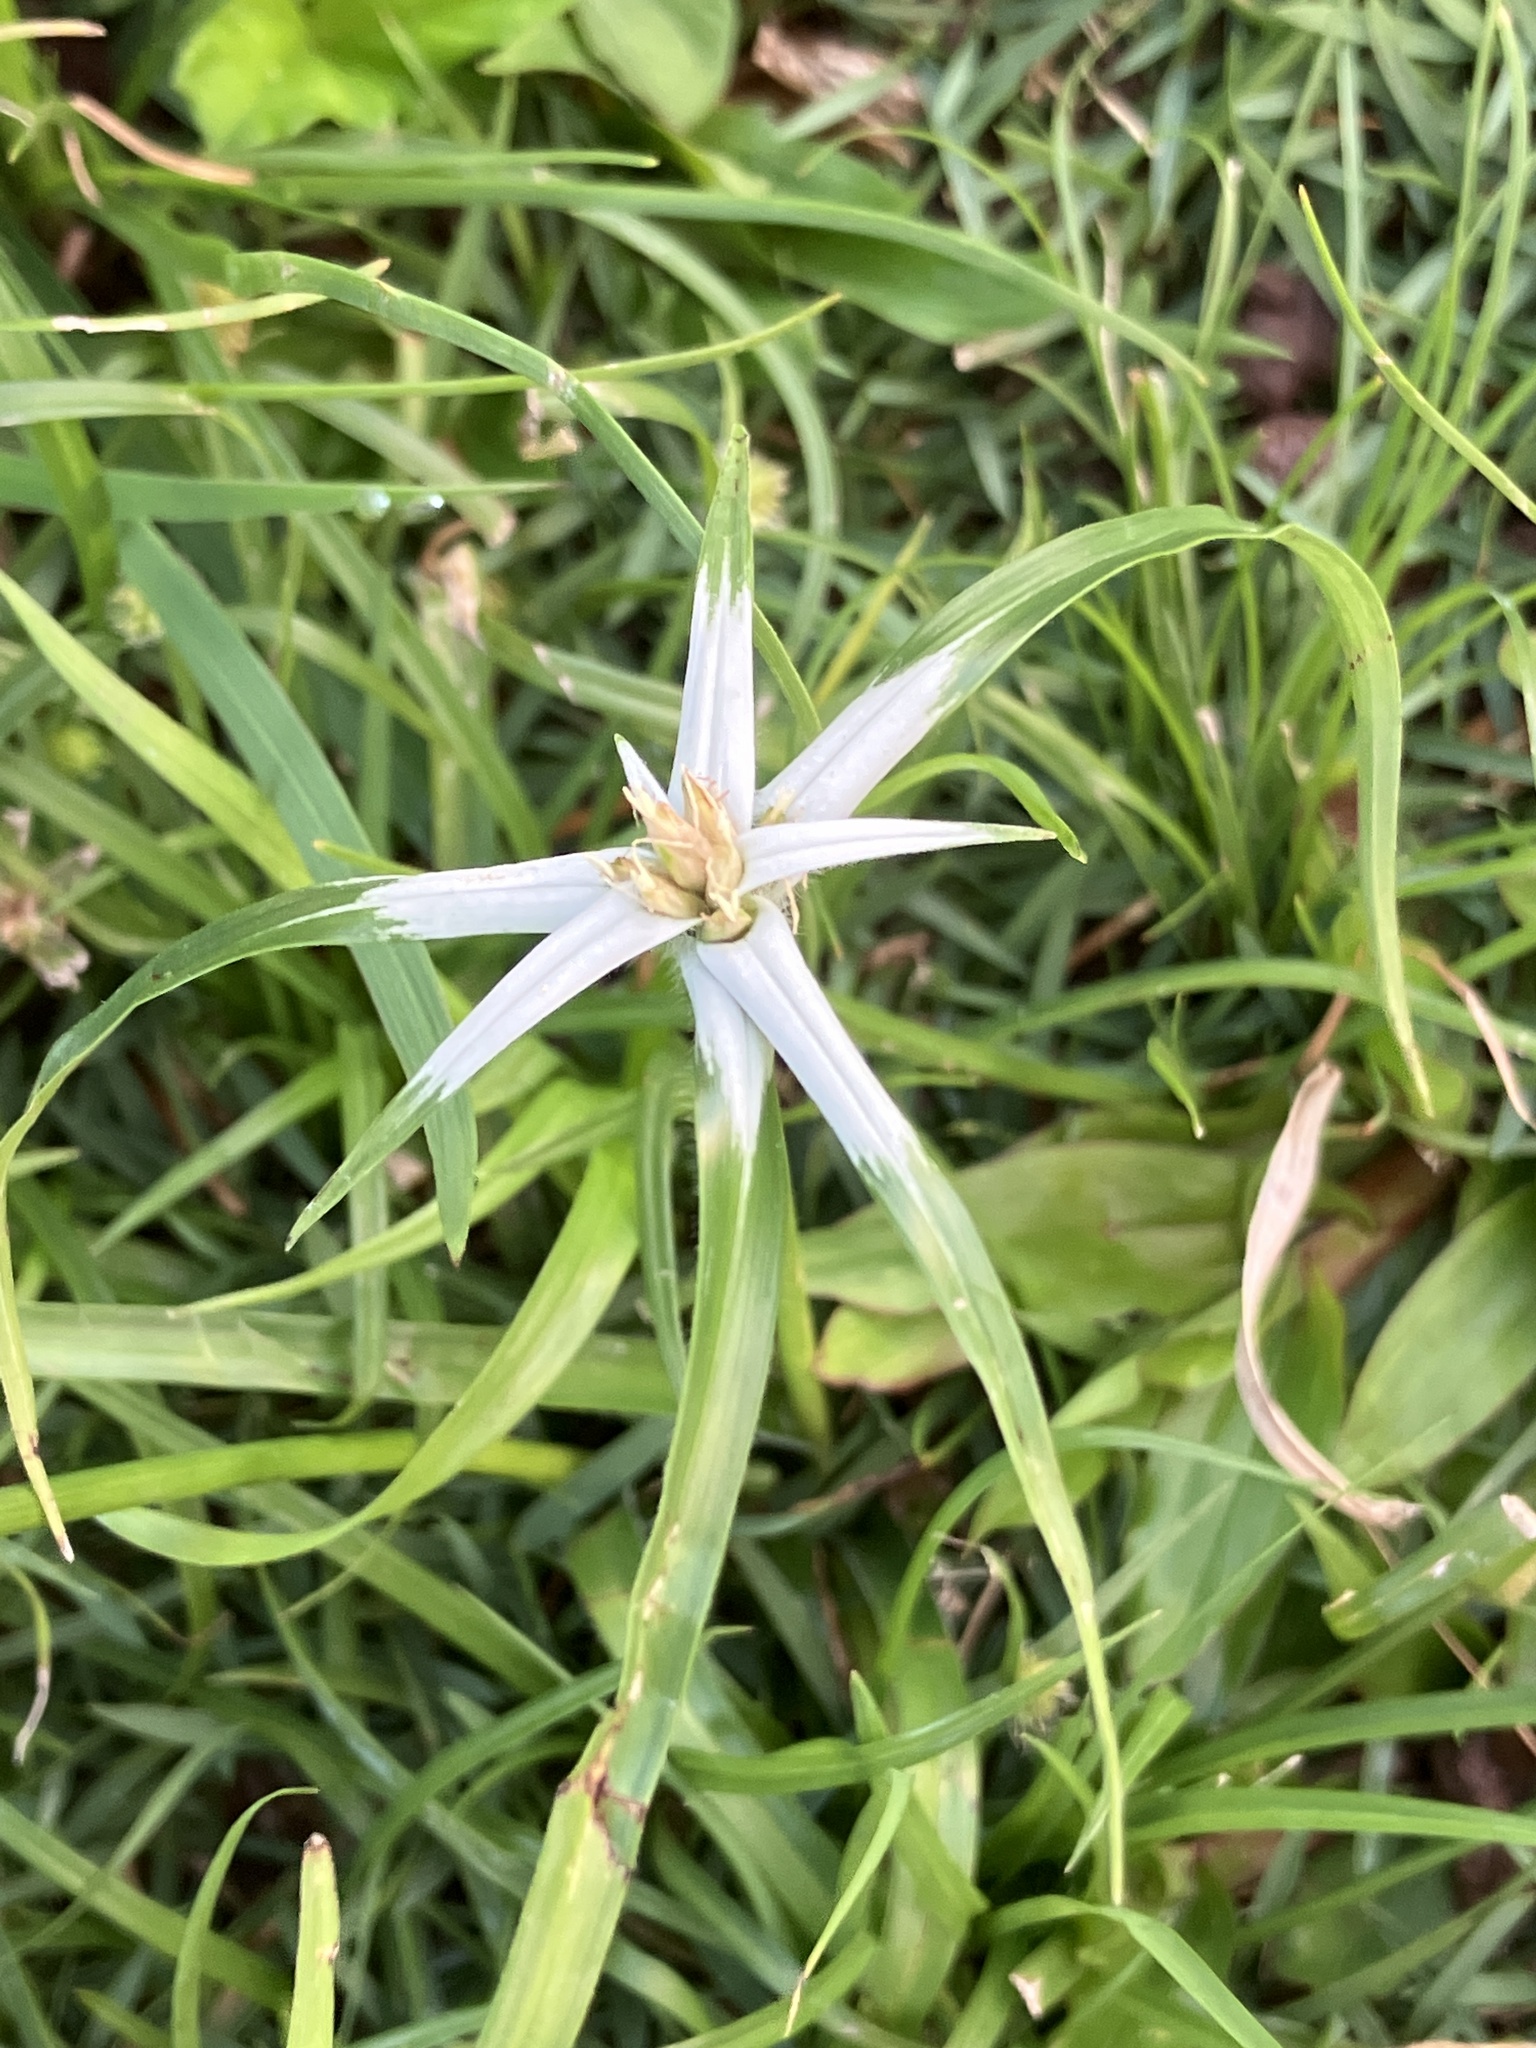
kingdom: Plantae
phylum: Tracheophyta
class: Liliopsida
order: Poales
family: Cyperaceae
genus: Rhynchospora
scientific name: Rhynchospora nervosa
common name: Star sedge
